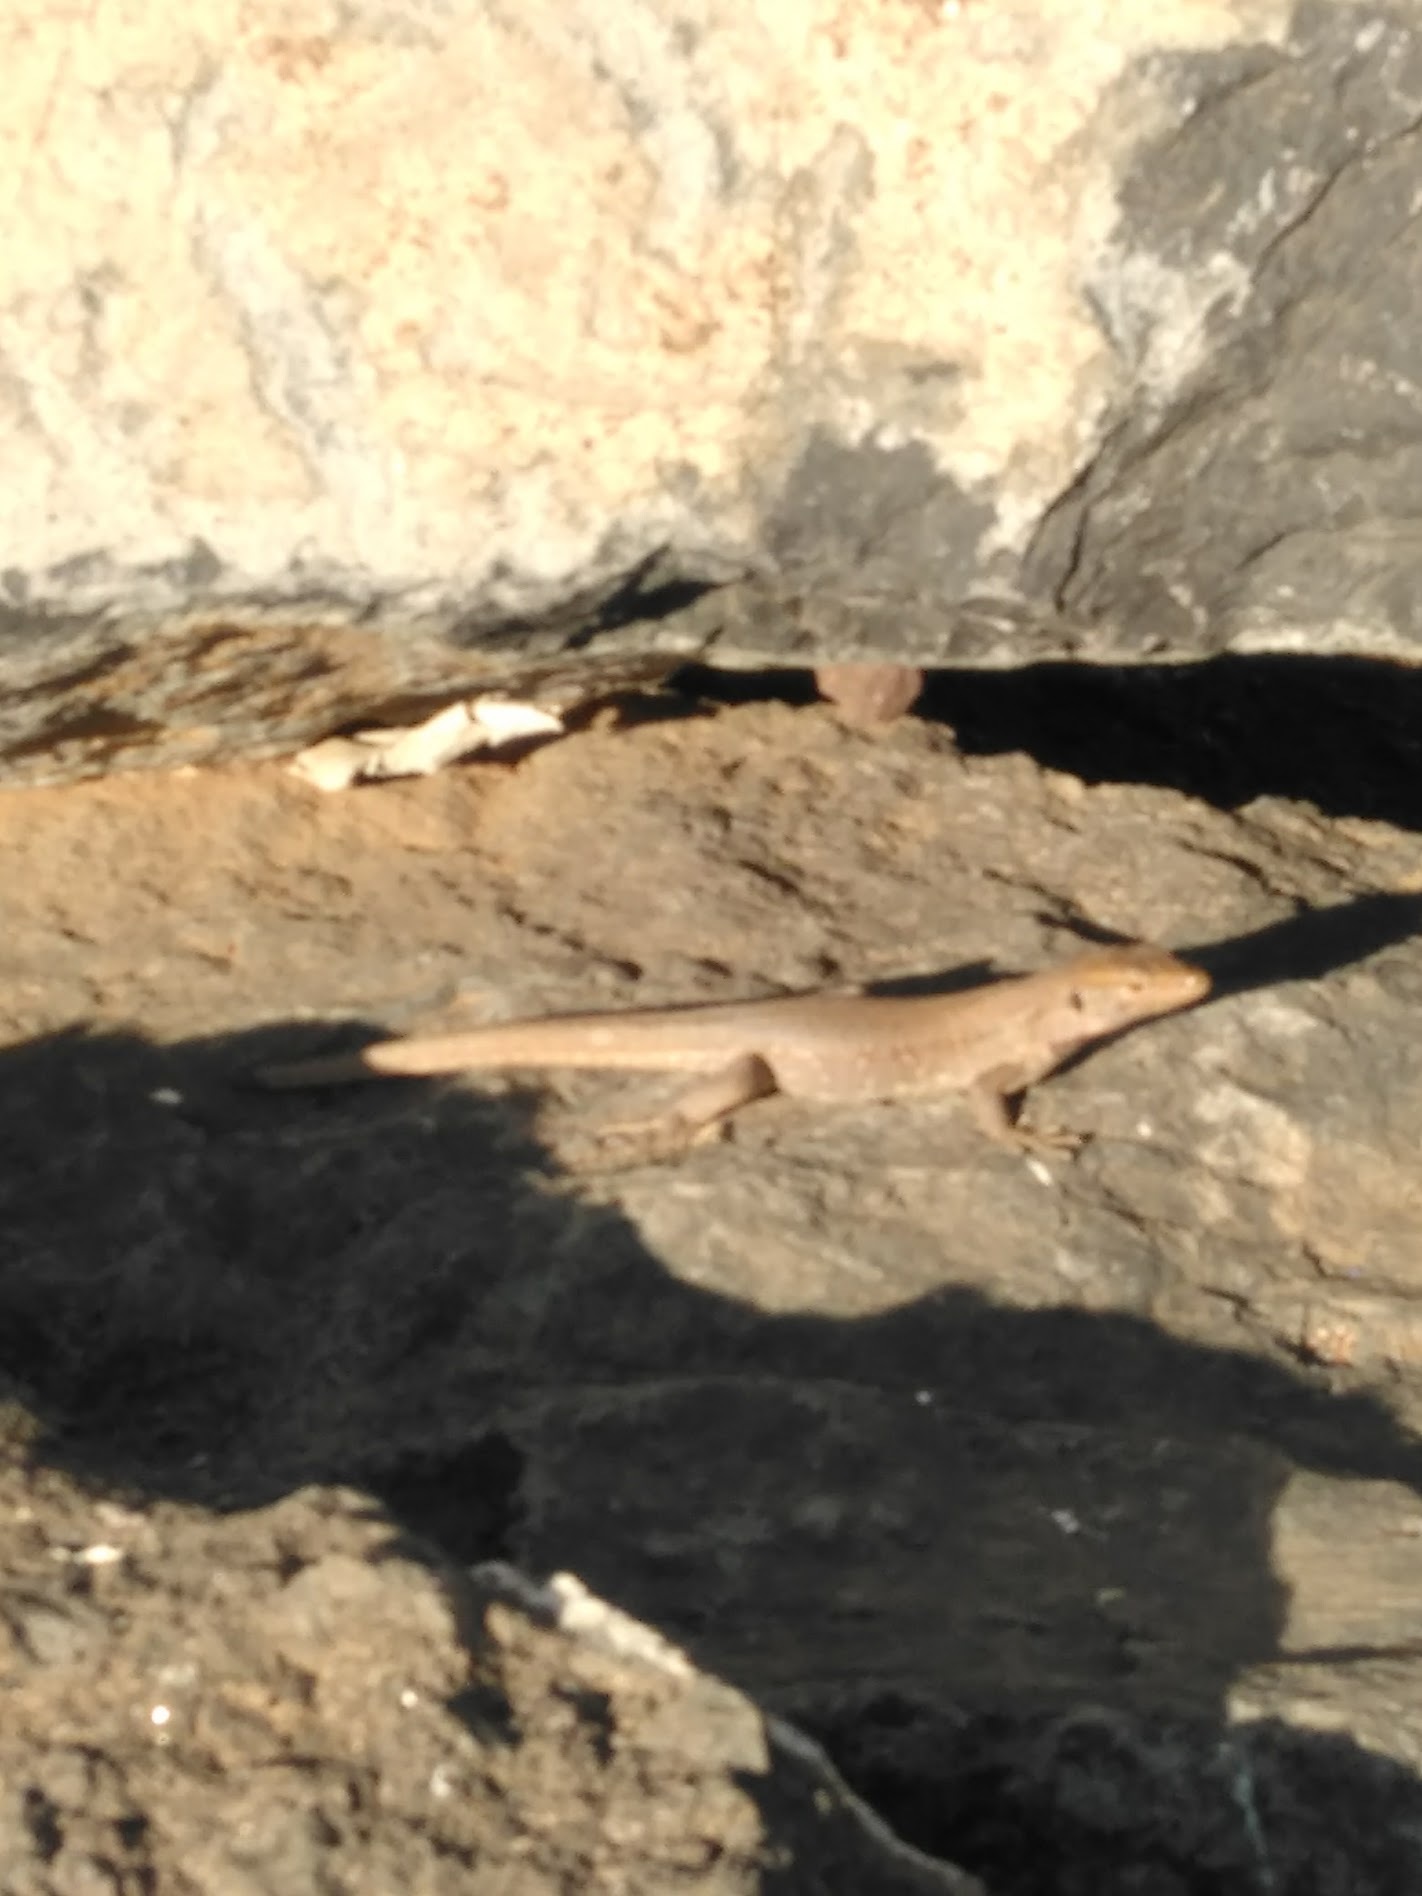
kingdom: Animalia
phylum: Chordata
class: Squamata
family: Lacertidae
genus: Gallotia
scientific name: Gallotia galloti
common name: Gallot's lizard
